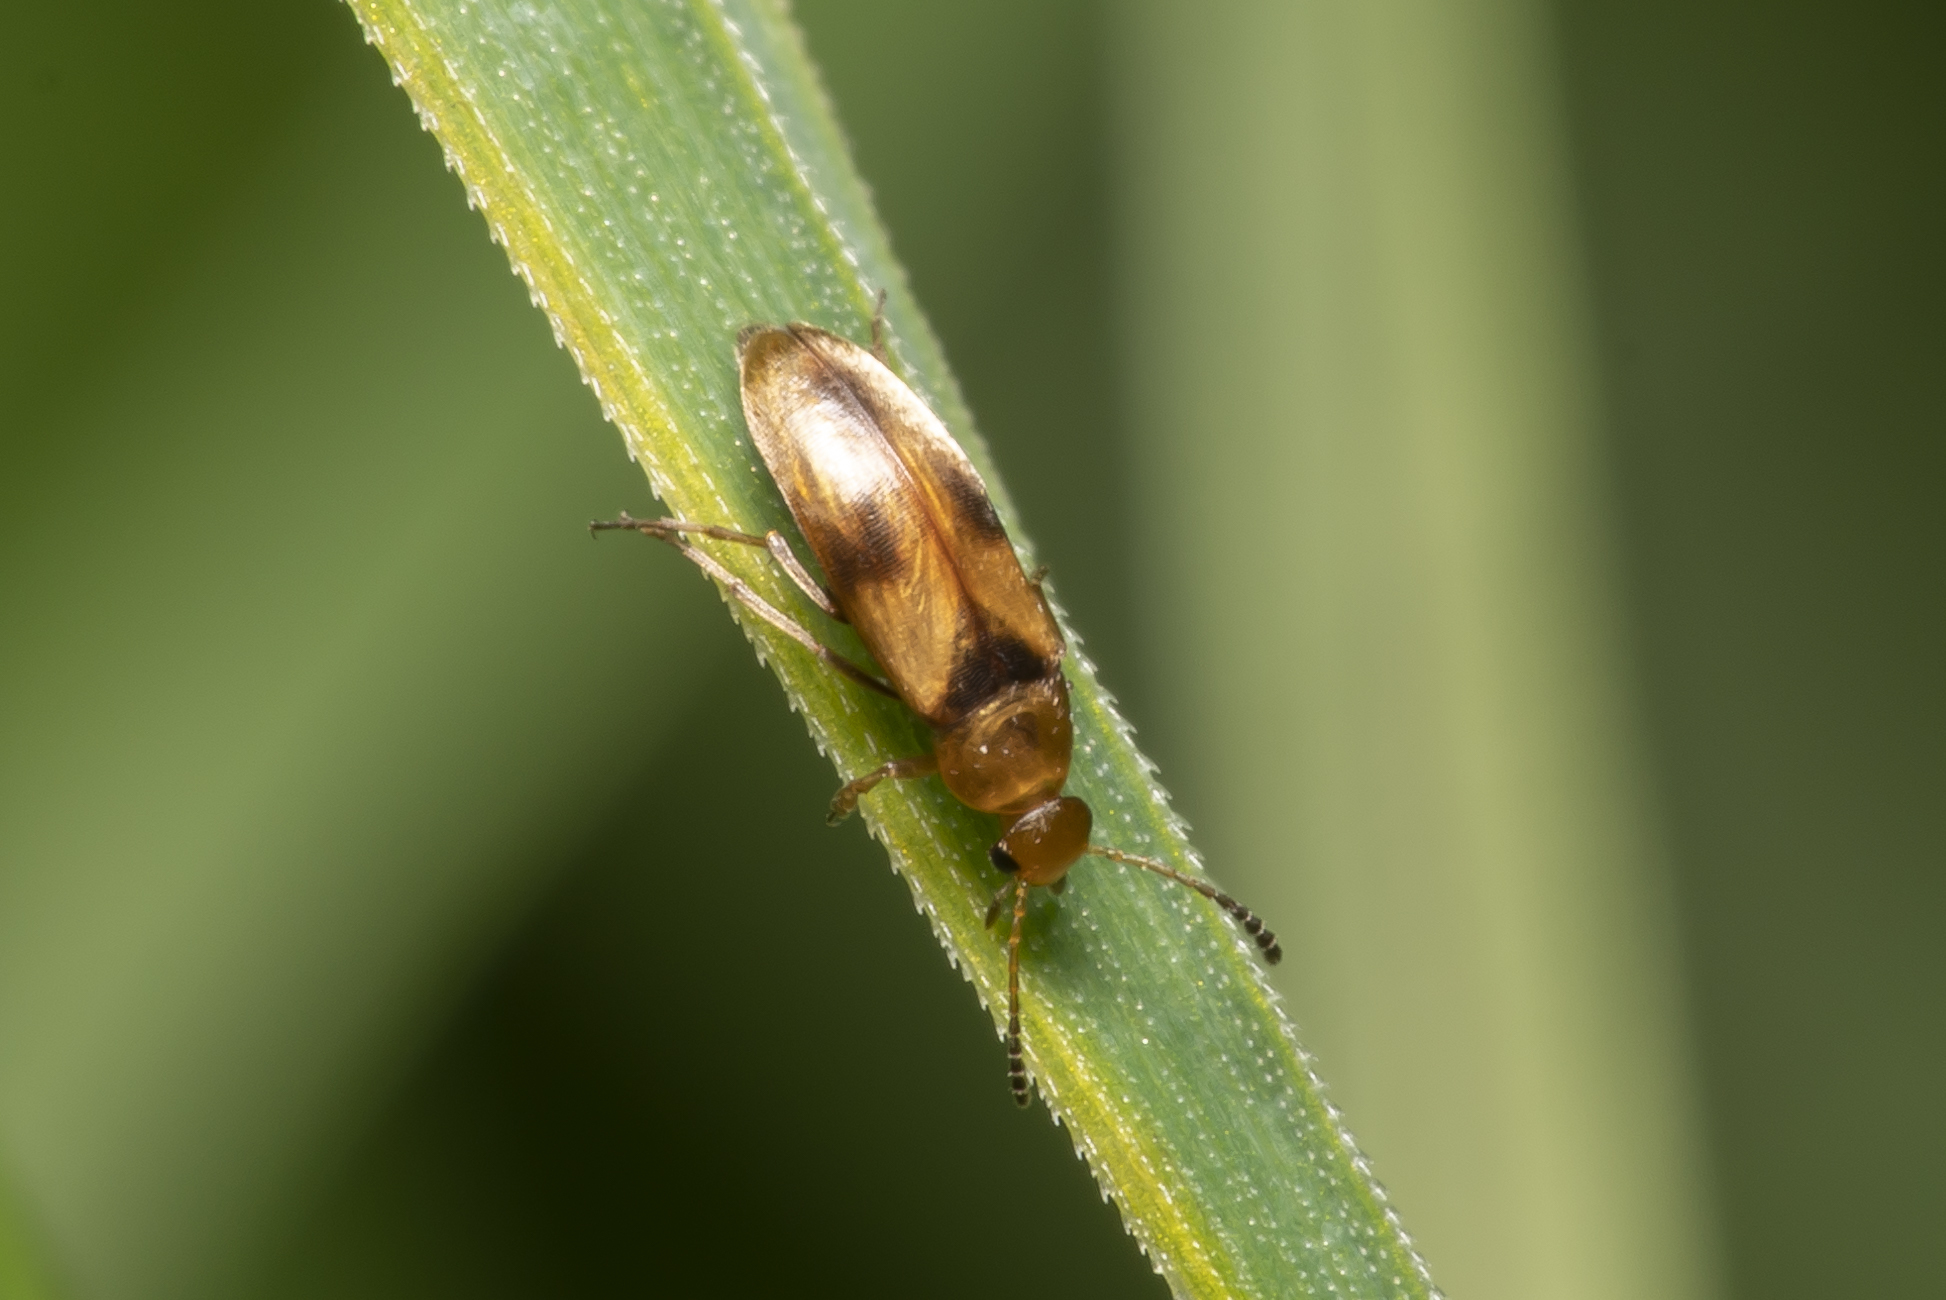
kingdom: Animalia
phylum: Arthropoda
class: Insecta
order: Coleoptera
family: Scraptiidae
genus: Anaspis
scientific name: Anaspis maculata
